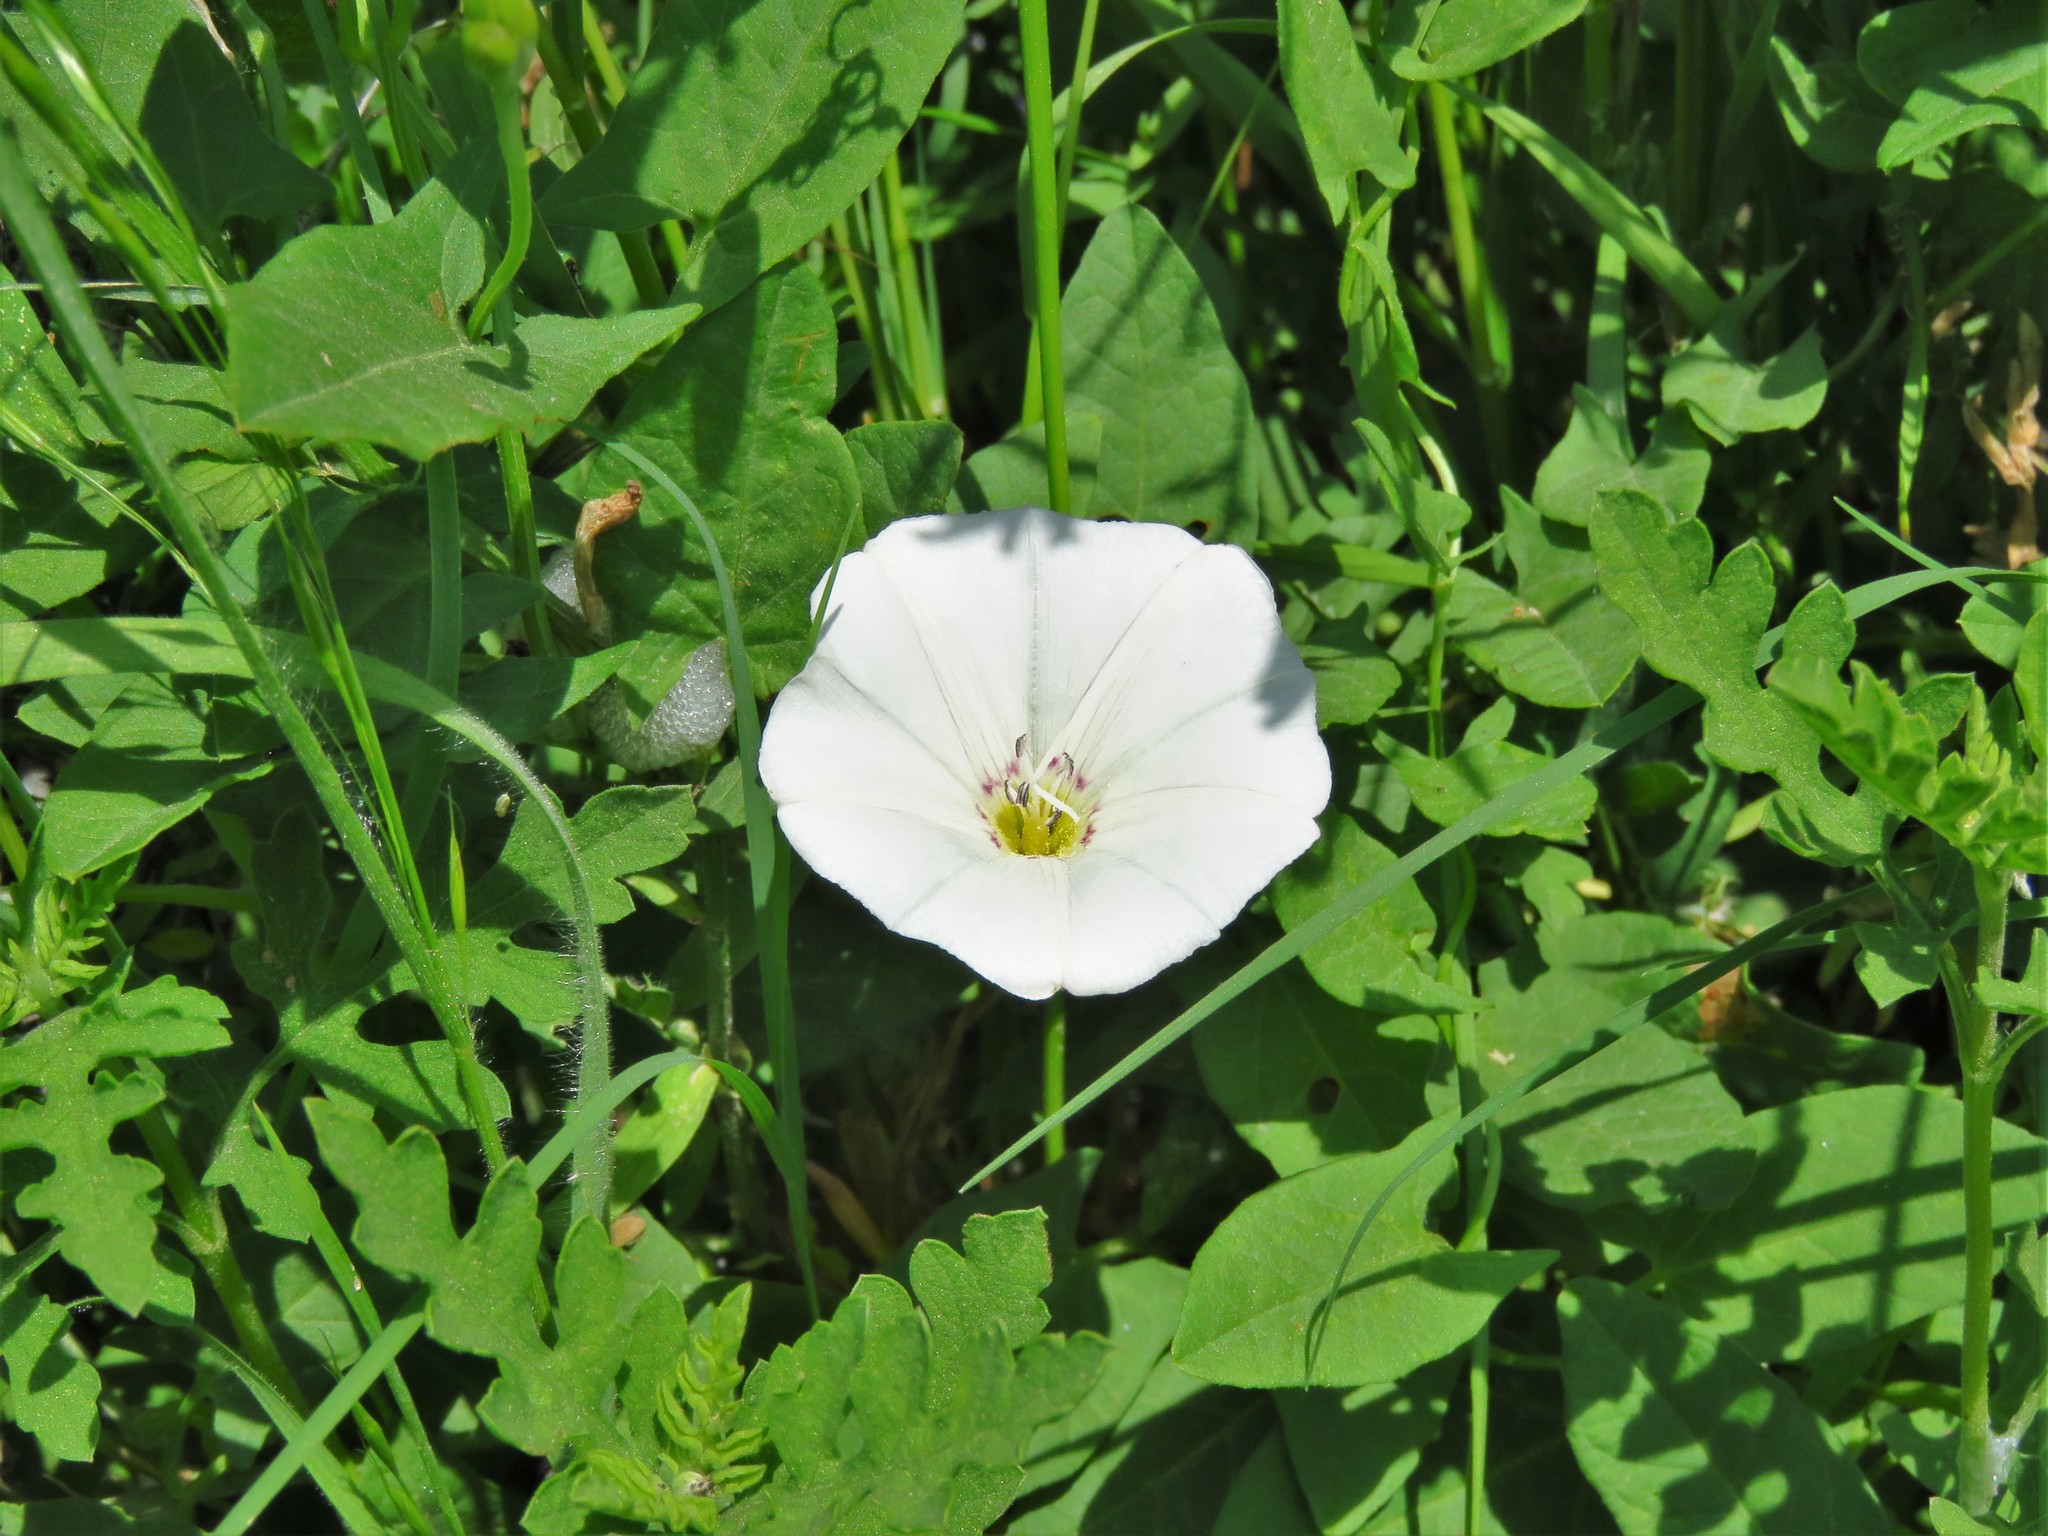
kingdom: Plantae
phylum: Tracheophyta
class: Magnoliopsida
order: Solanales
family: Convolvulaceae
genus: Convolvulus
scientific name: Convolvulus arvensis
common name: Field bindweed
